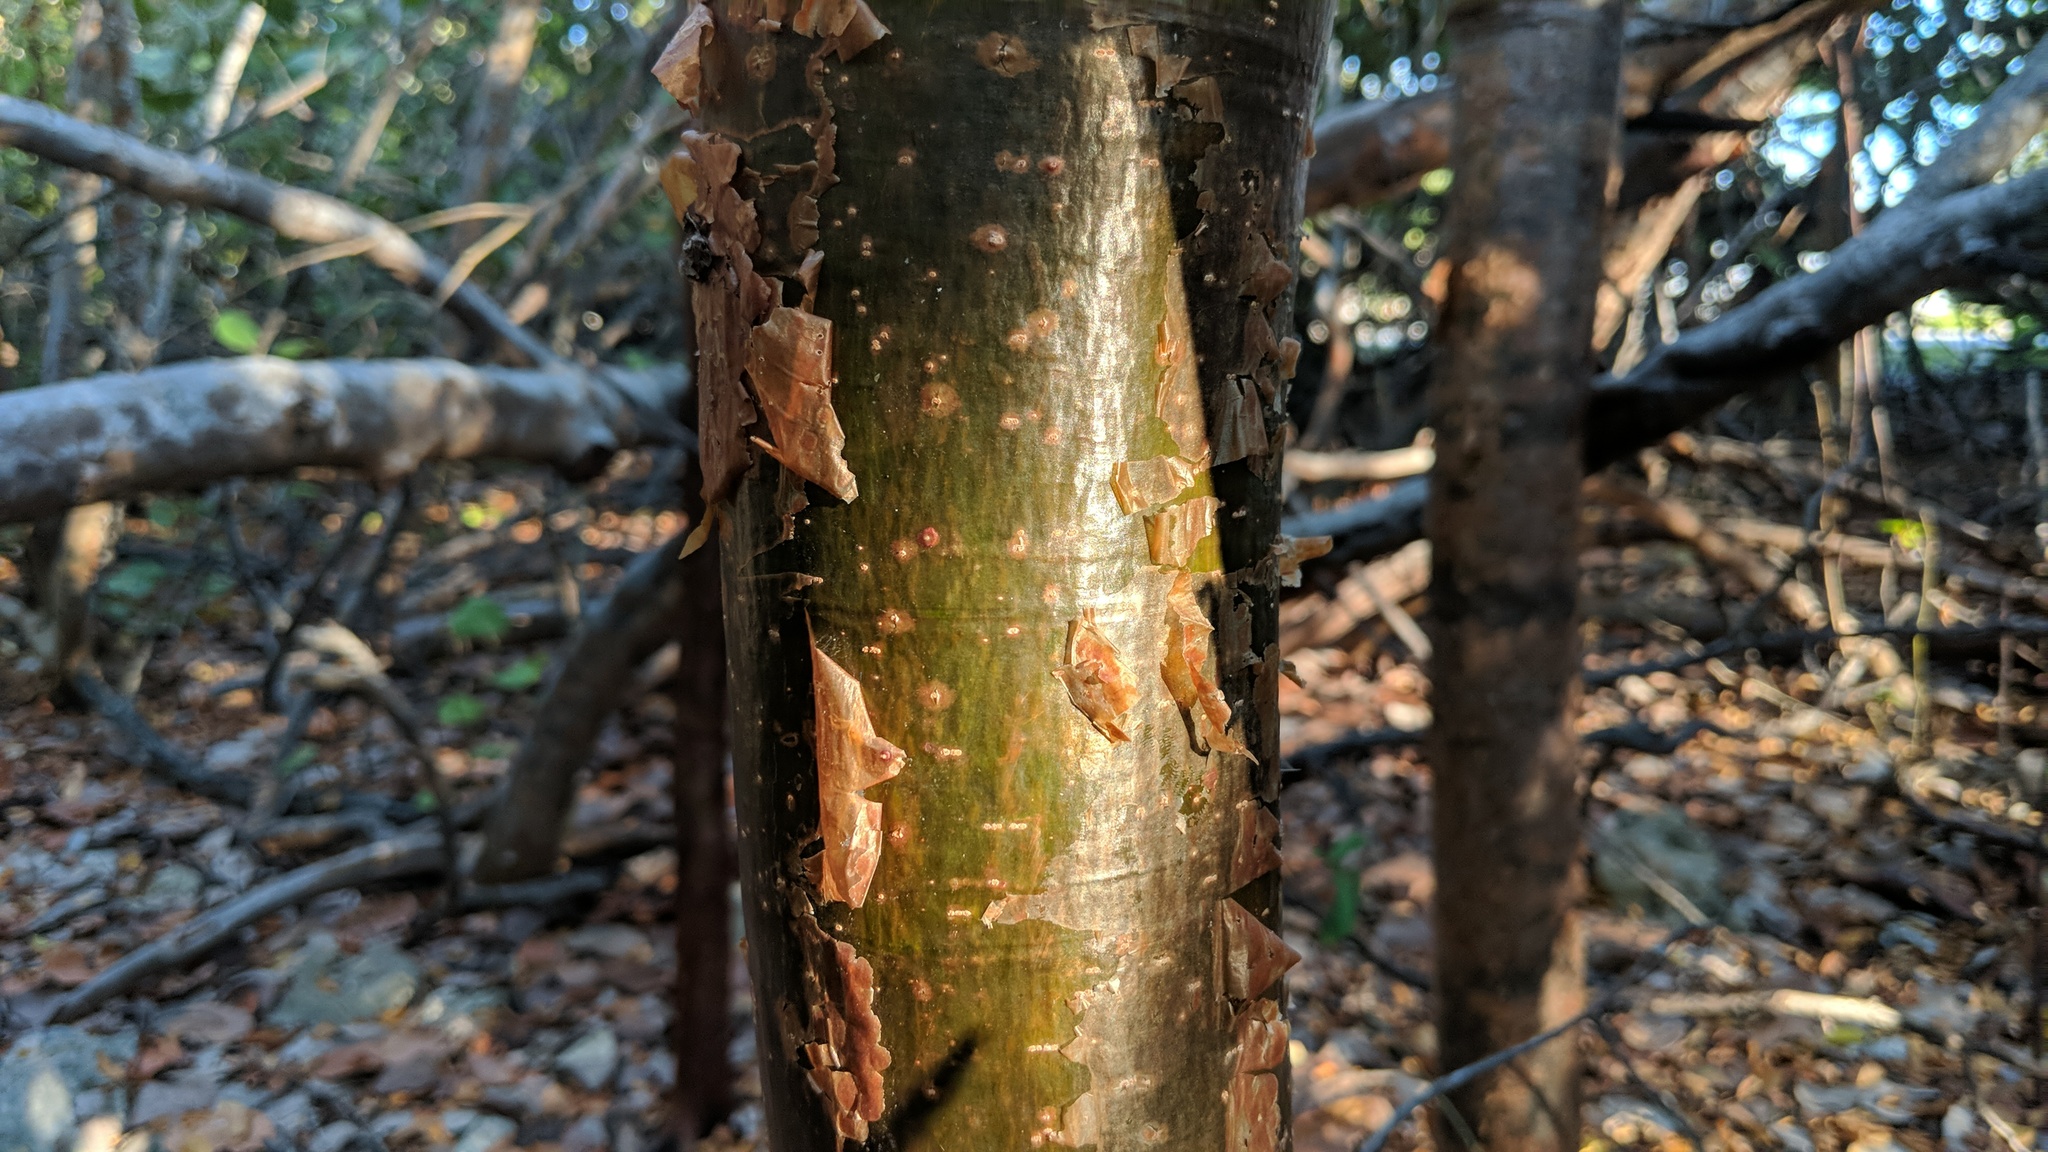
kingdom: Plantae
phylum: Tracheophyta
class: Magnoliopsida
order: Sapindales
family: Burseraceae
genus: Bursera
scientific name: Bursera simaruba
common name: Turpentine tree
